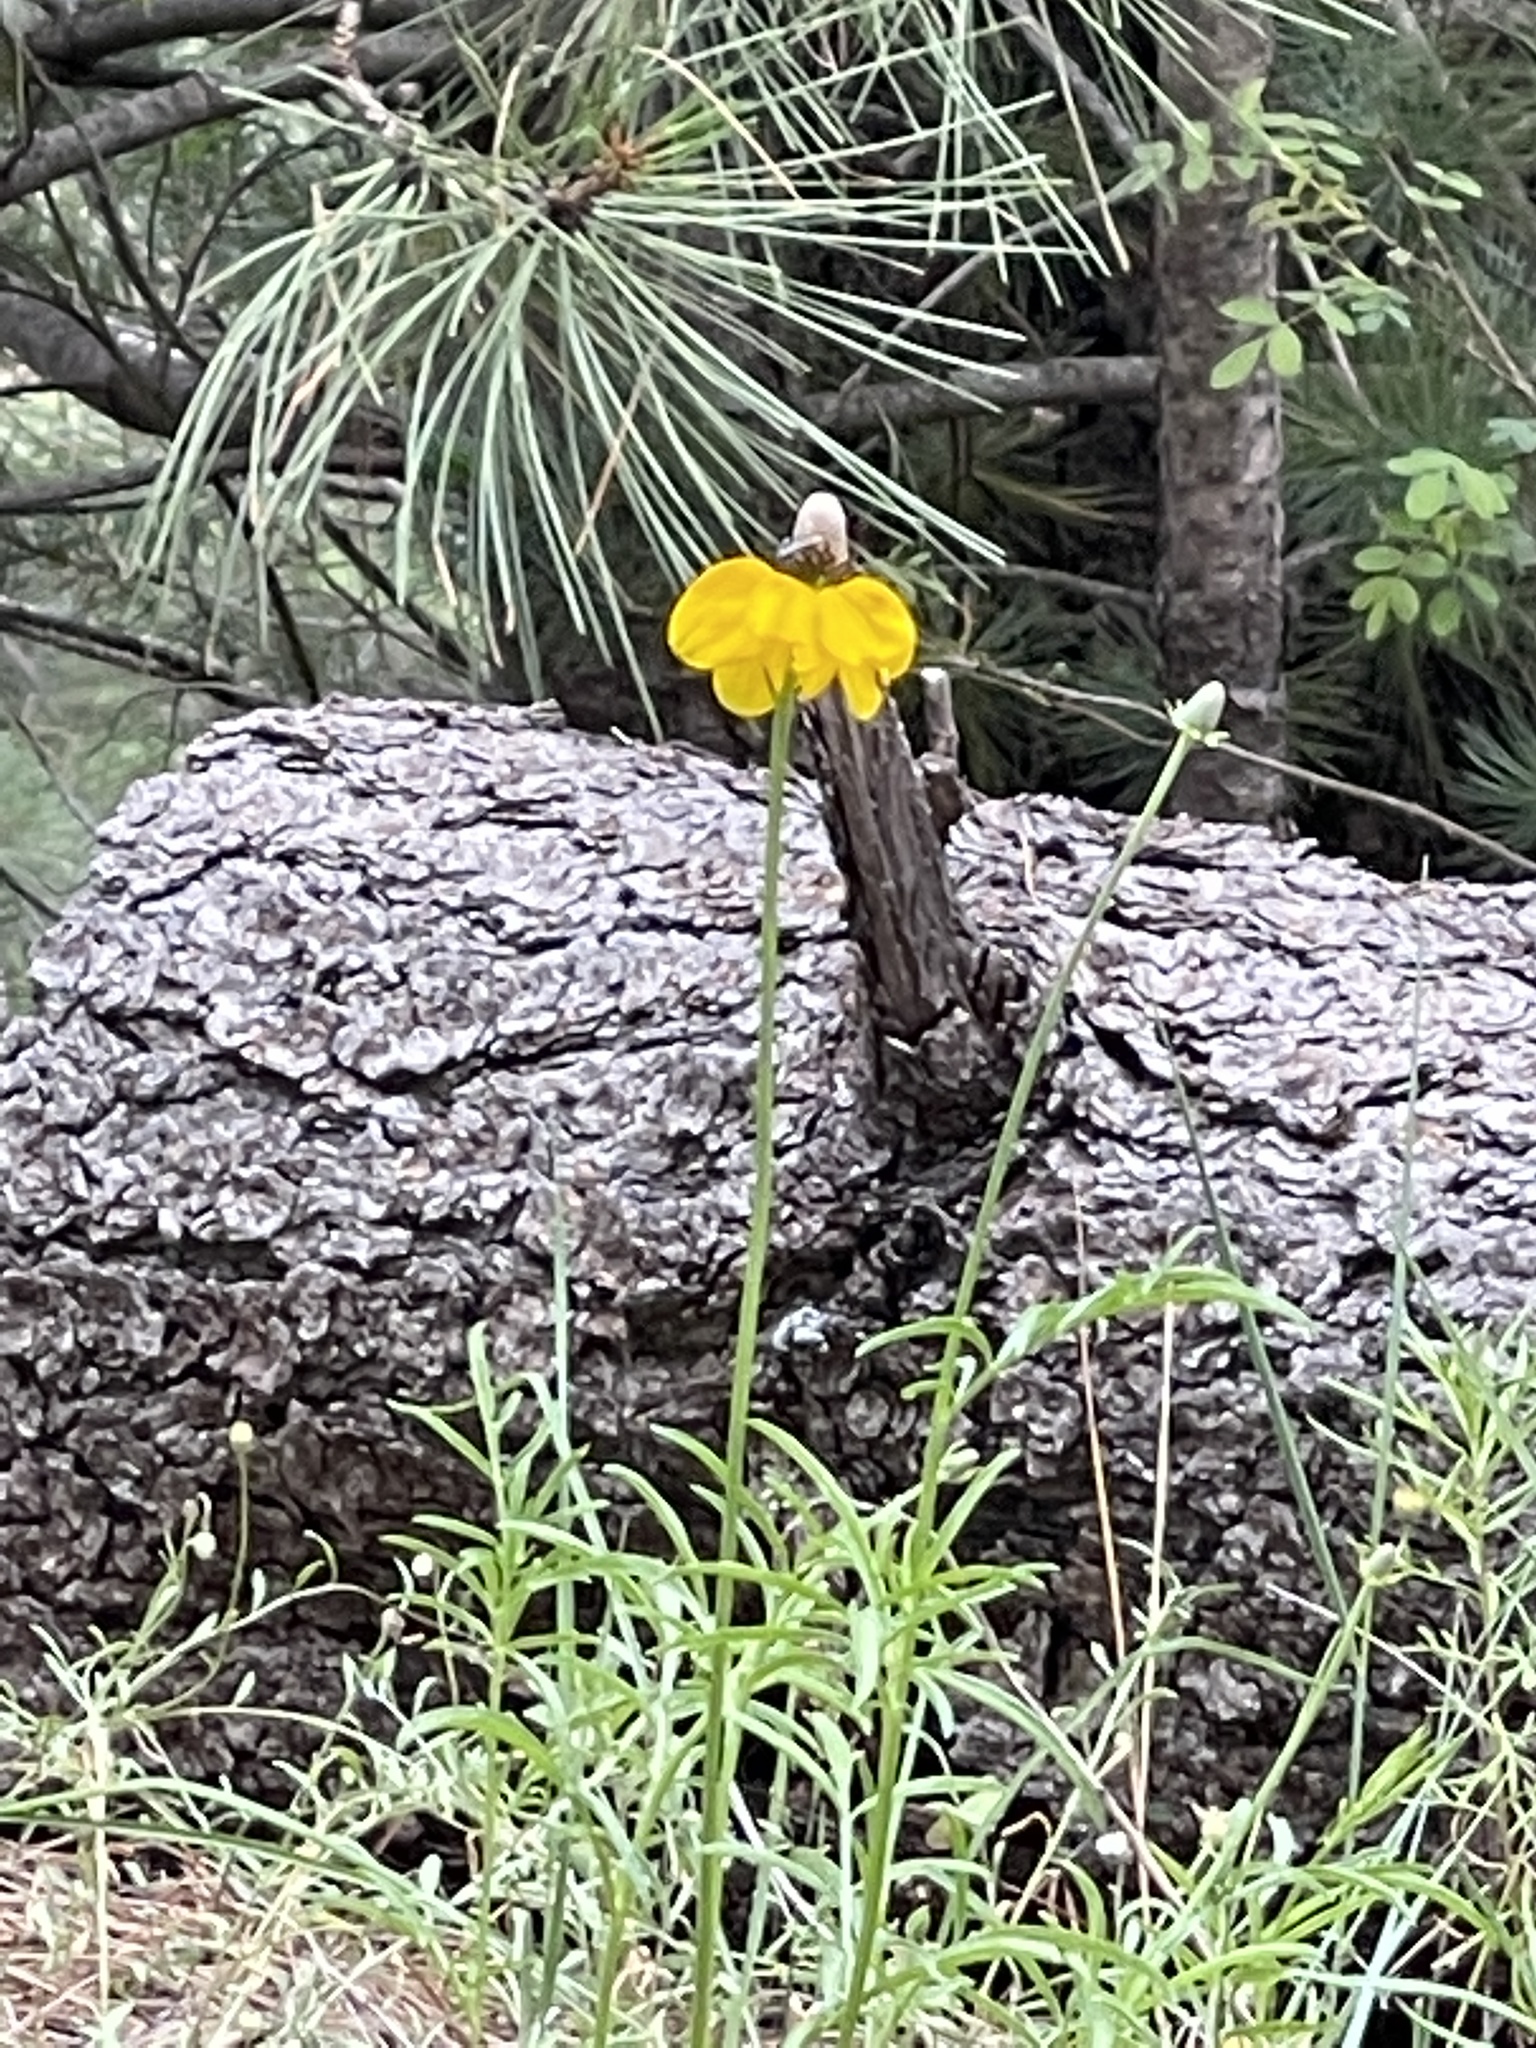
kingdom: Plantae
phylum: Tracheophyta
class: Magnoliopsida
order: Asterales
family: Asteraceae
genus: Ratibida
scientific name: Ratibida columnifera
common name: Prairie coneflower
